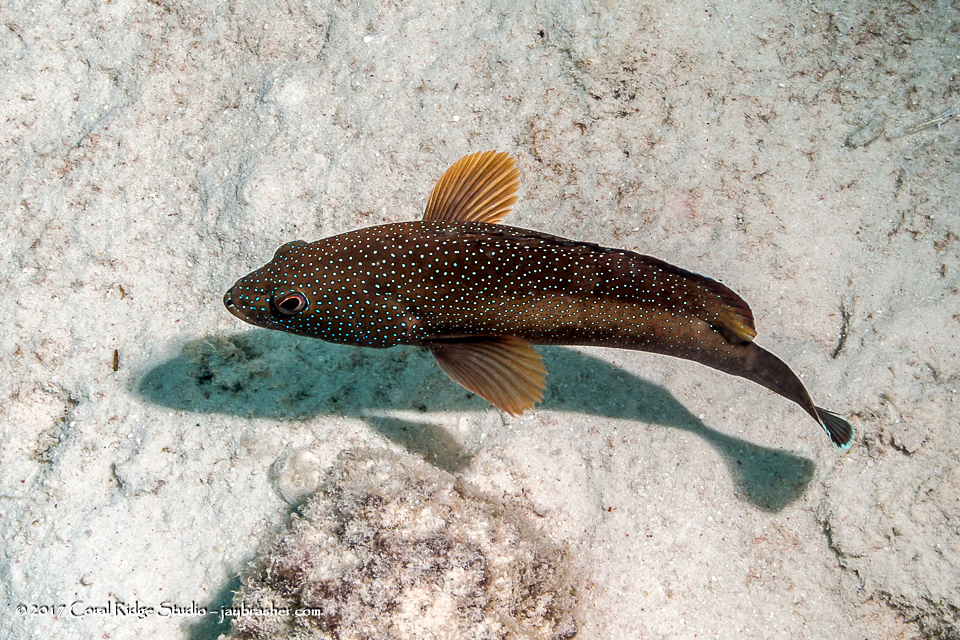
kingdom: Animalia
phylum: Chordata
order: Perciformes
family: Serranidae
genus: Cephalopholis
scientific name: Cephalopholis fulva
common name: Butterfish
